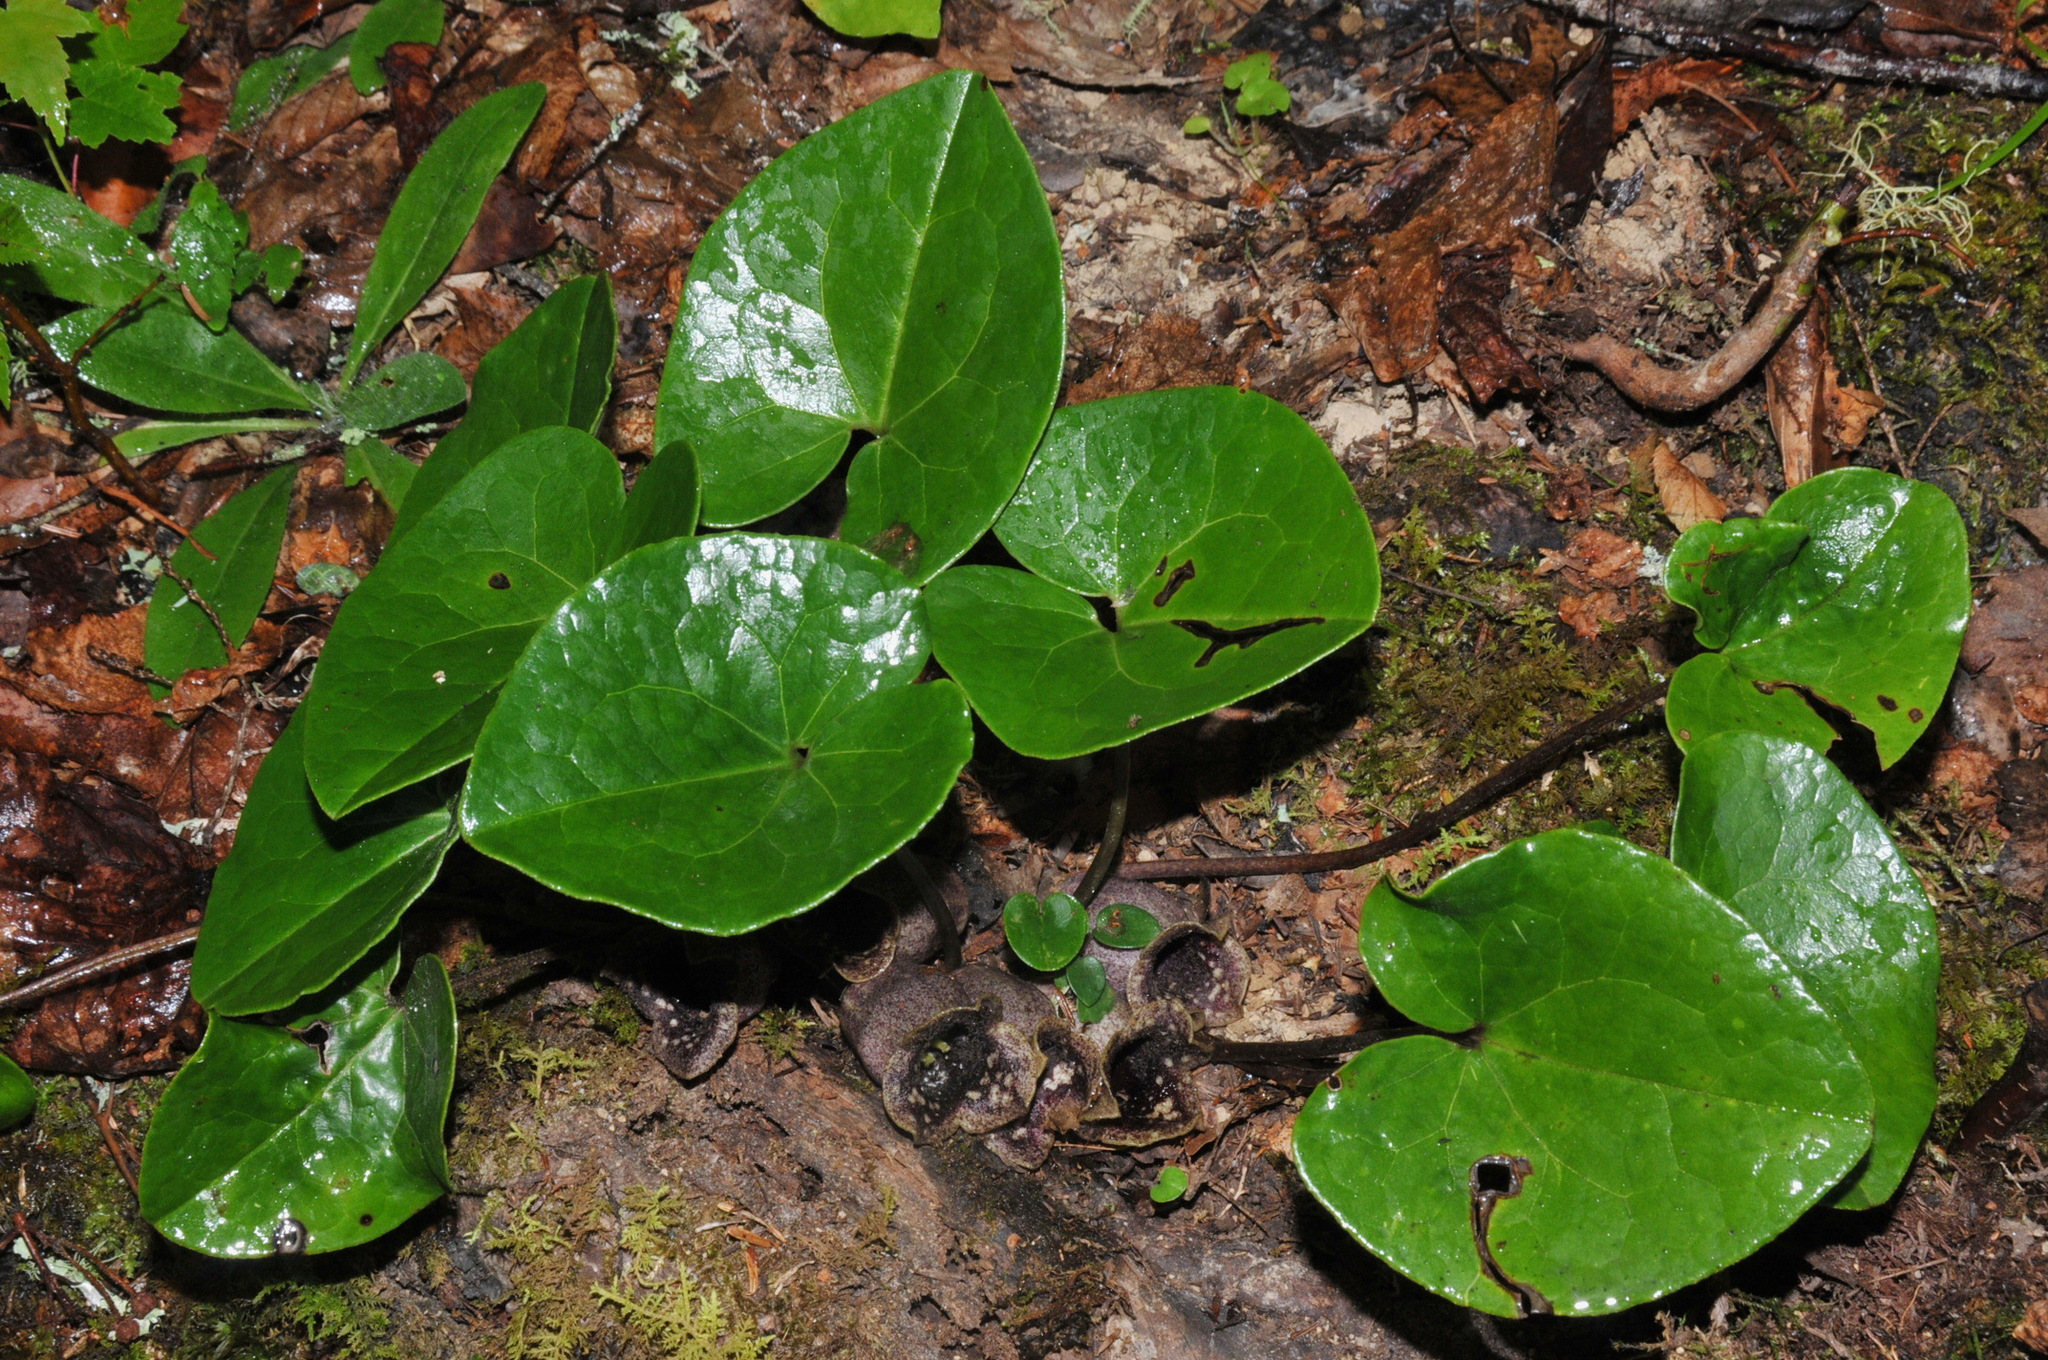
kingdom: Plantae
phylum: Tracheophyta
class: Magnoliopsida
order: Piperales
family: Aristolochiaceae
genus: Hexastylis
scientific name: Hexastylis shuttleworthii
